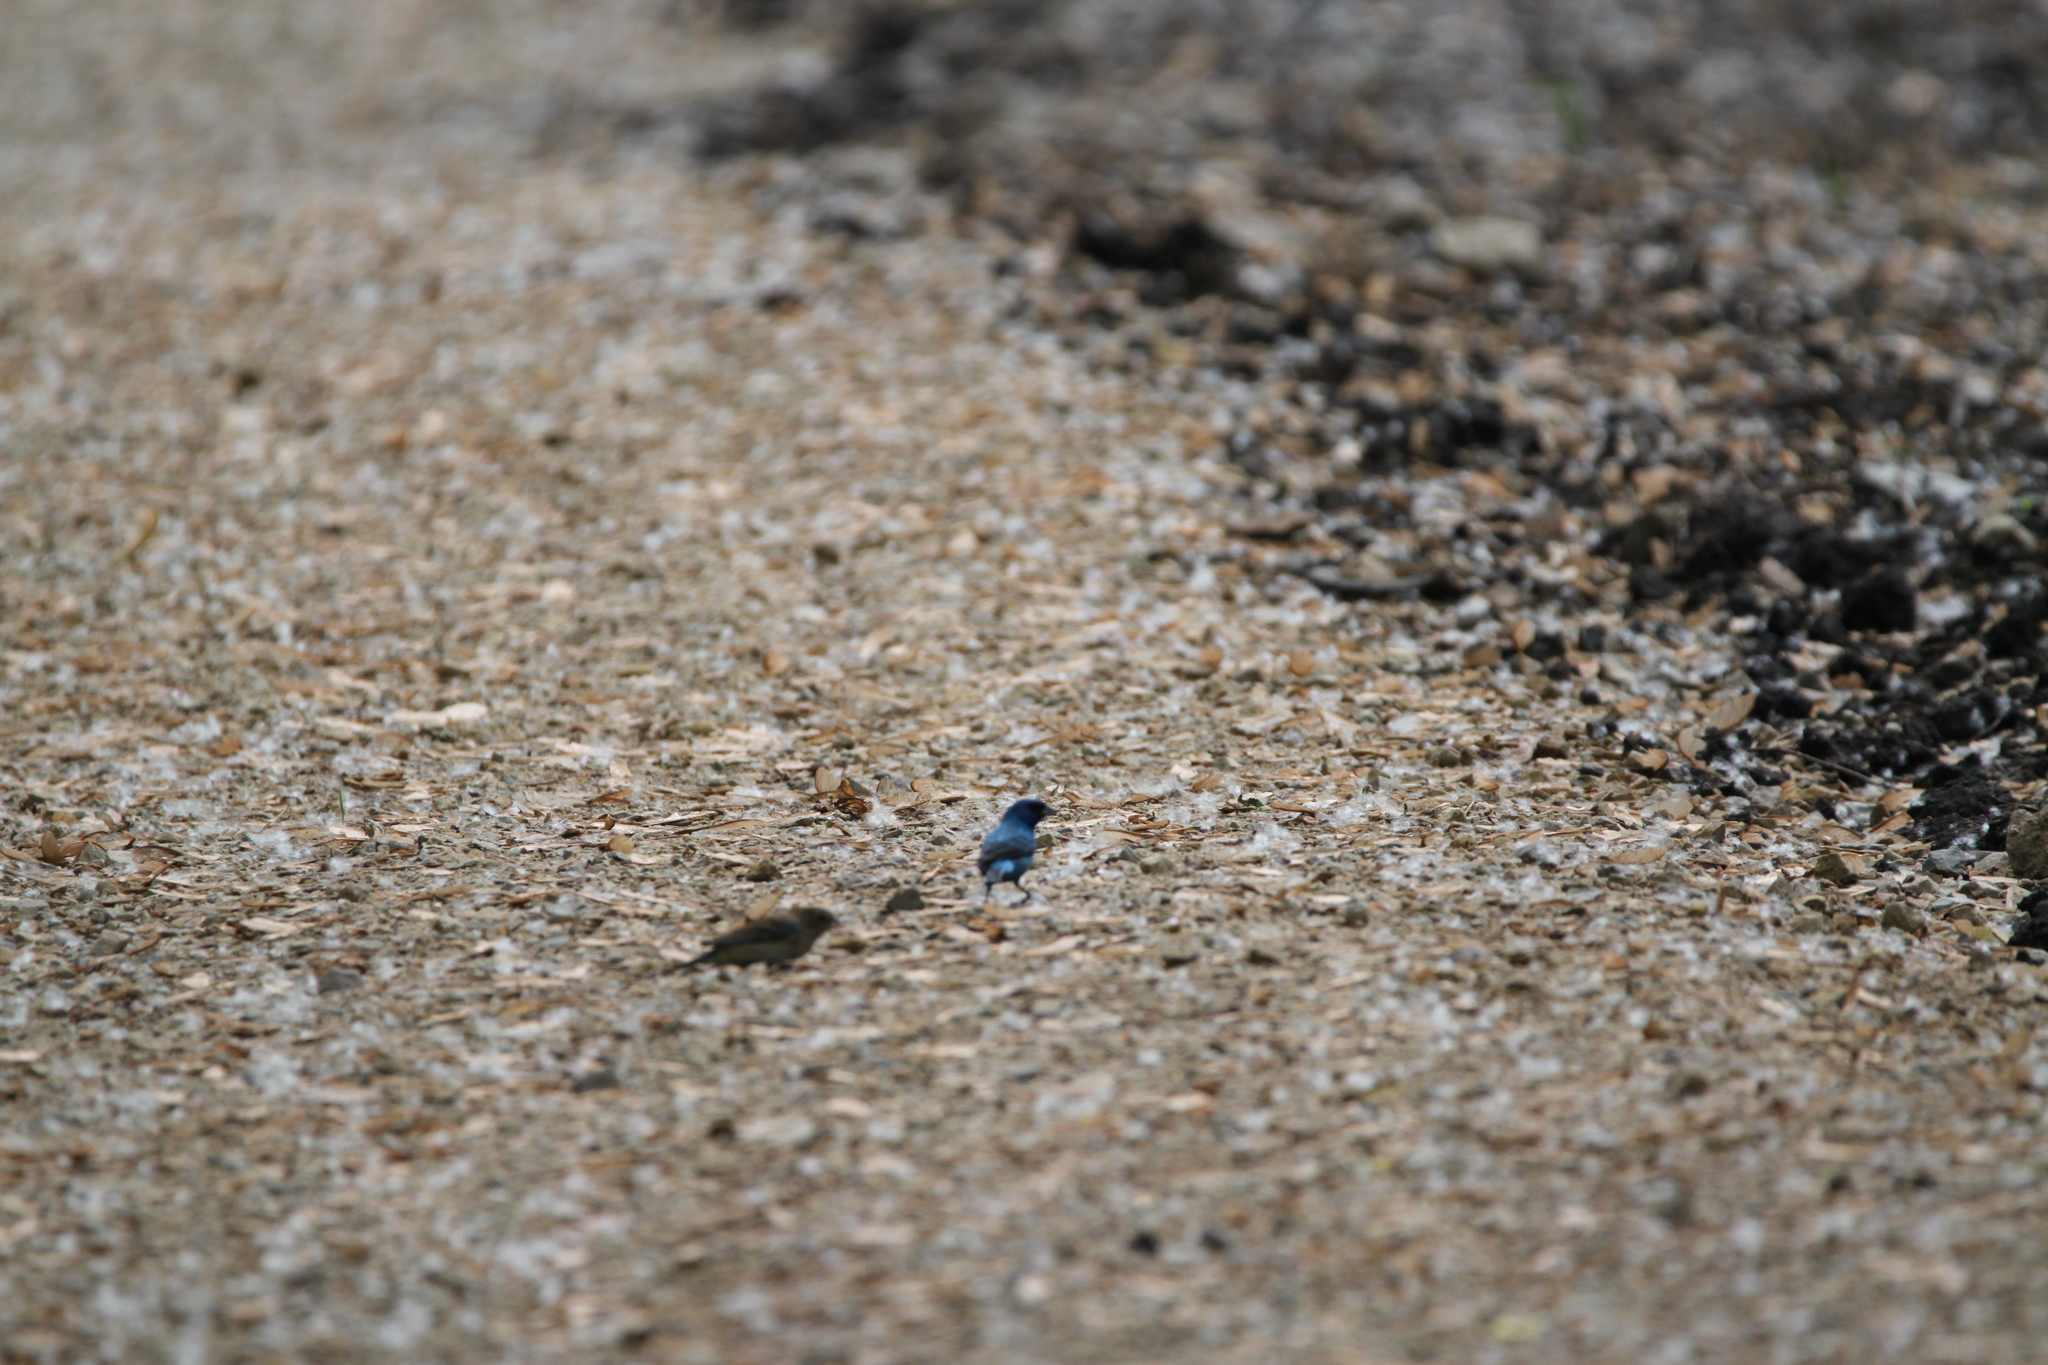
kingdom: Animalia
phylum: Chordata
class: Aves
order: Passeriformes
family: Cardinalidae
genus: Passerina
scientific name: Passerina cyanea
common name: Indigo bunting
